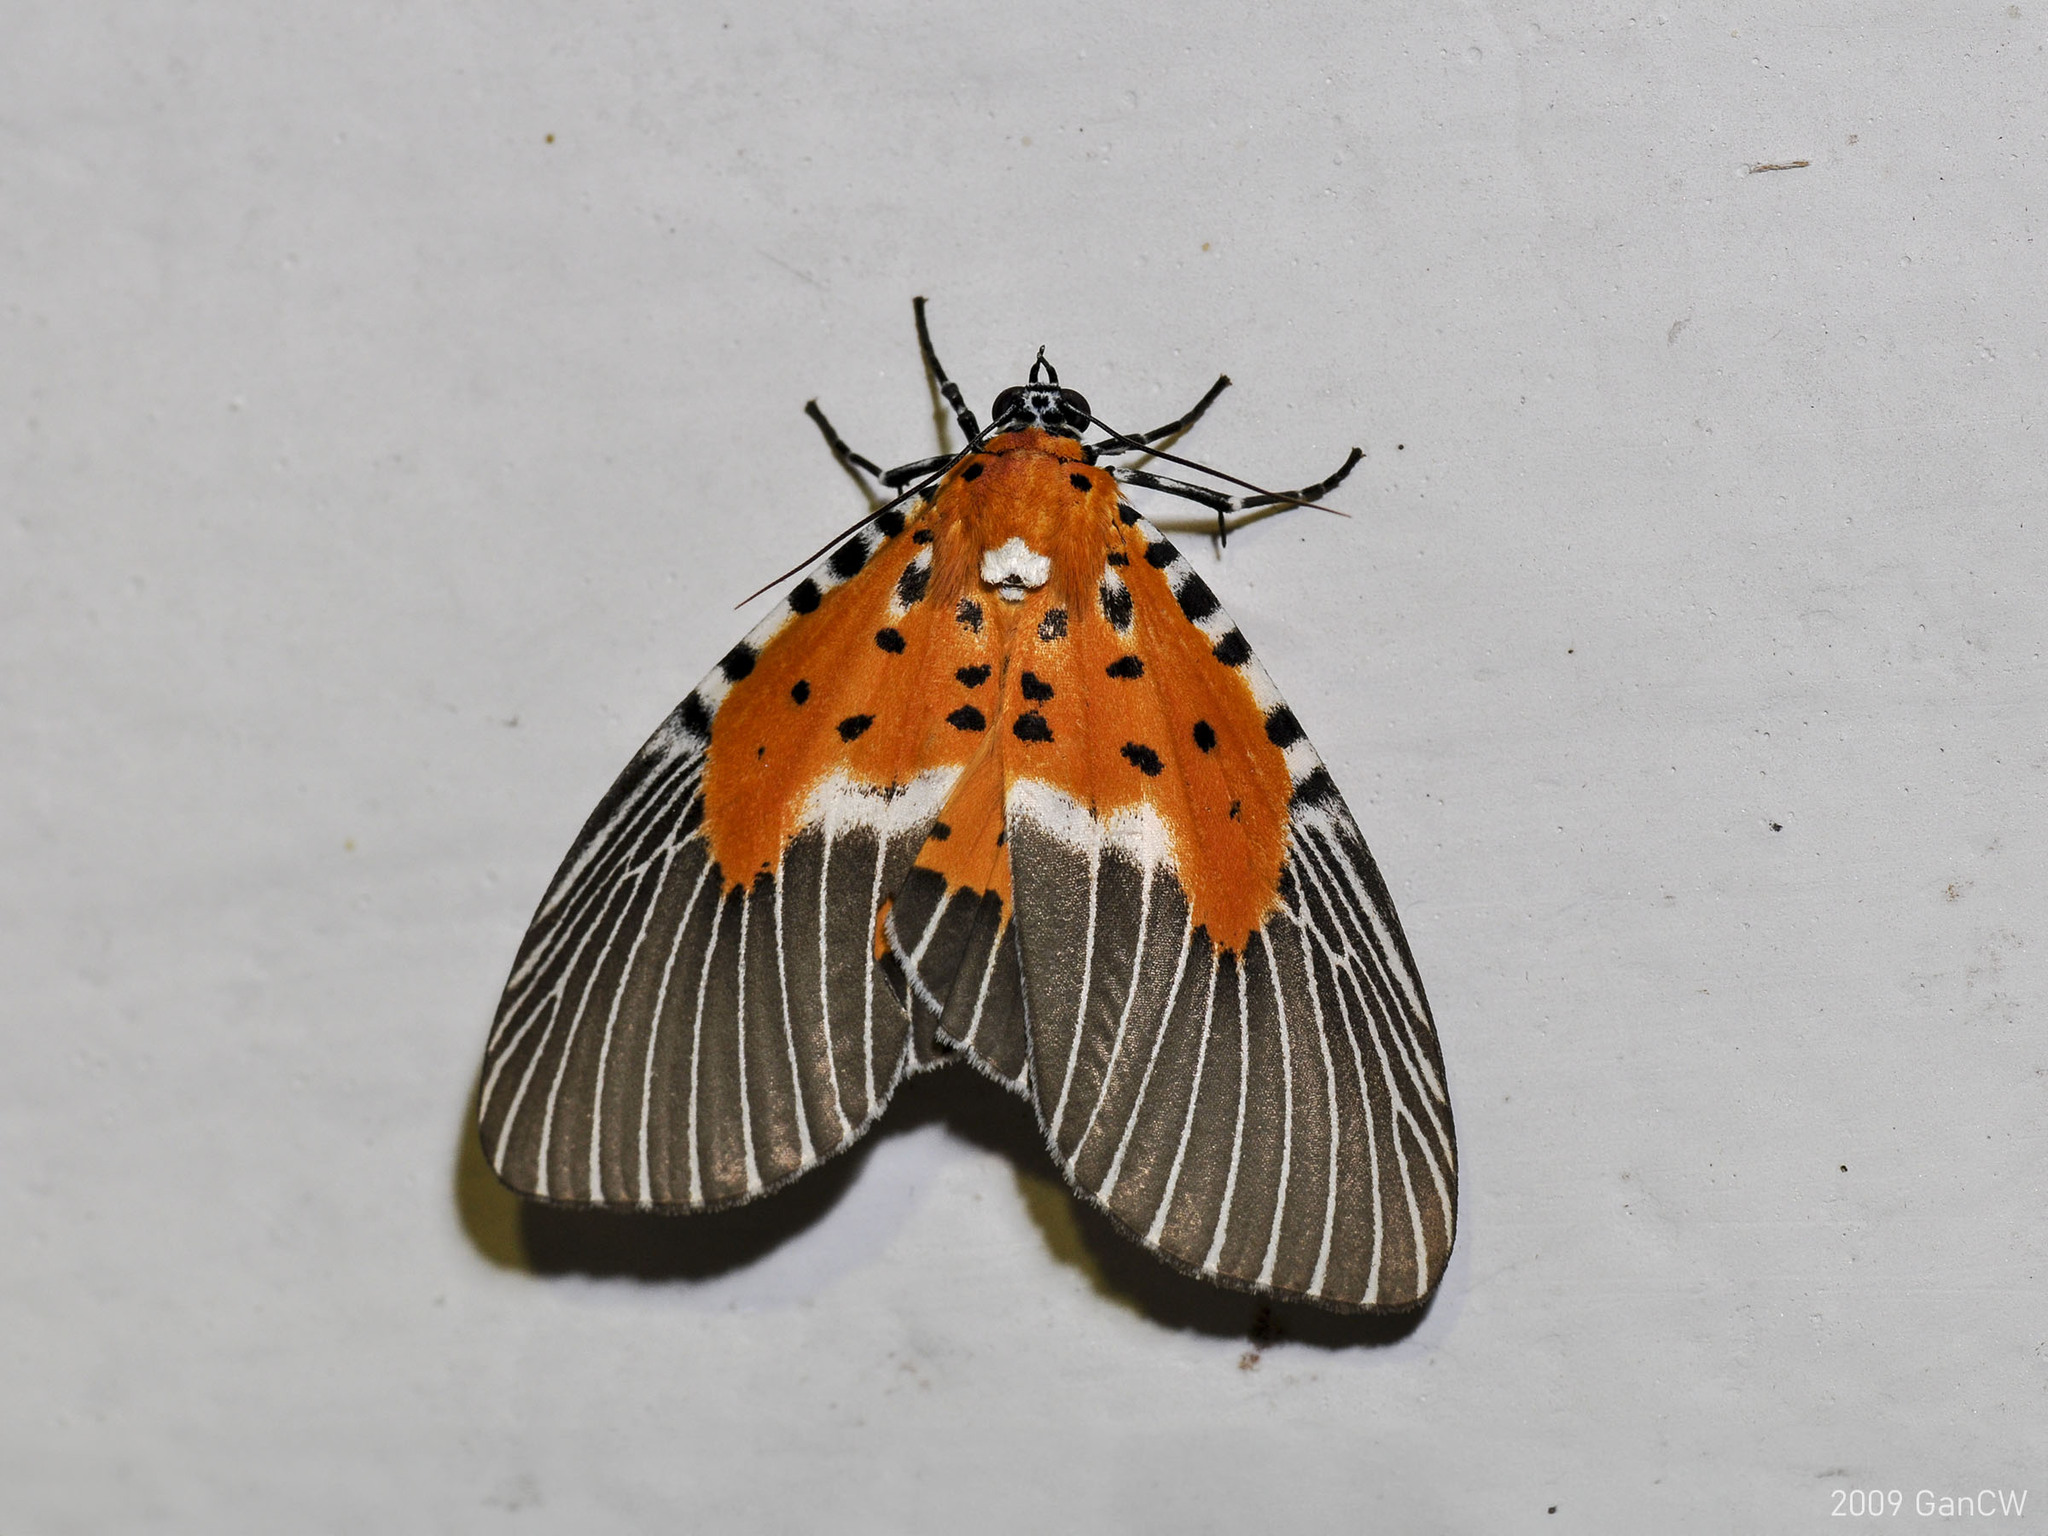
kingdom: Animalia
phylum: Arthropoda
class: Insecta
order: Lepidoptera
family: Erebidae
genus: Peridrome
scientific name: Peridrome subfascia
